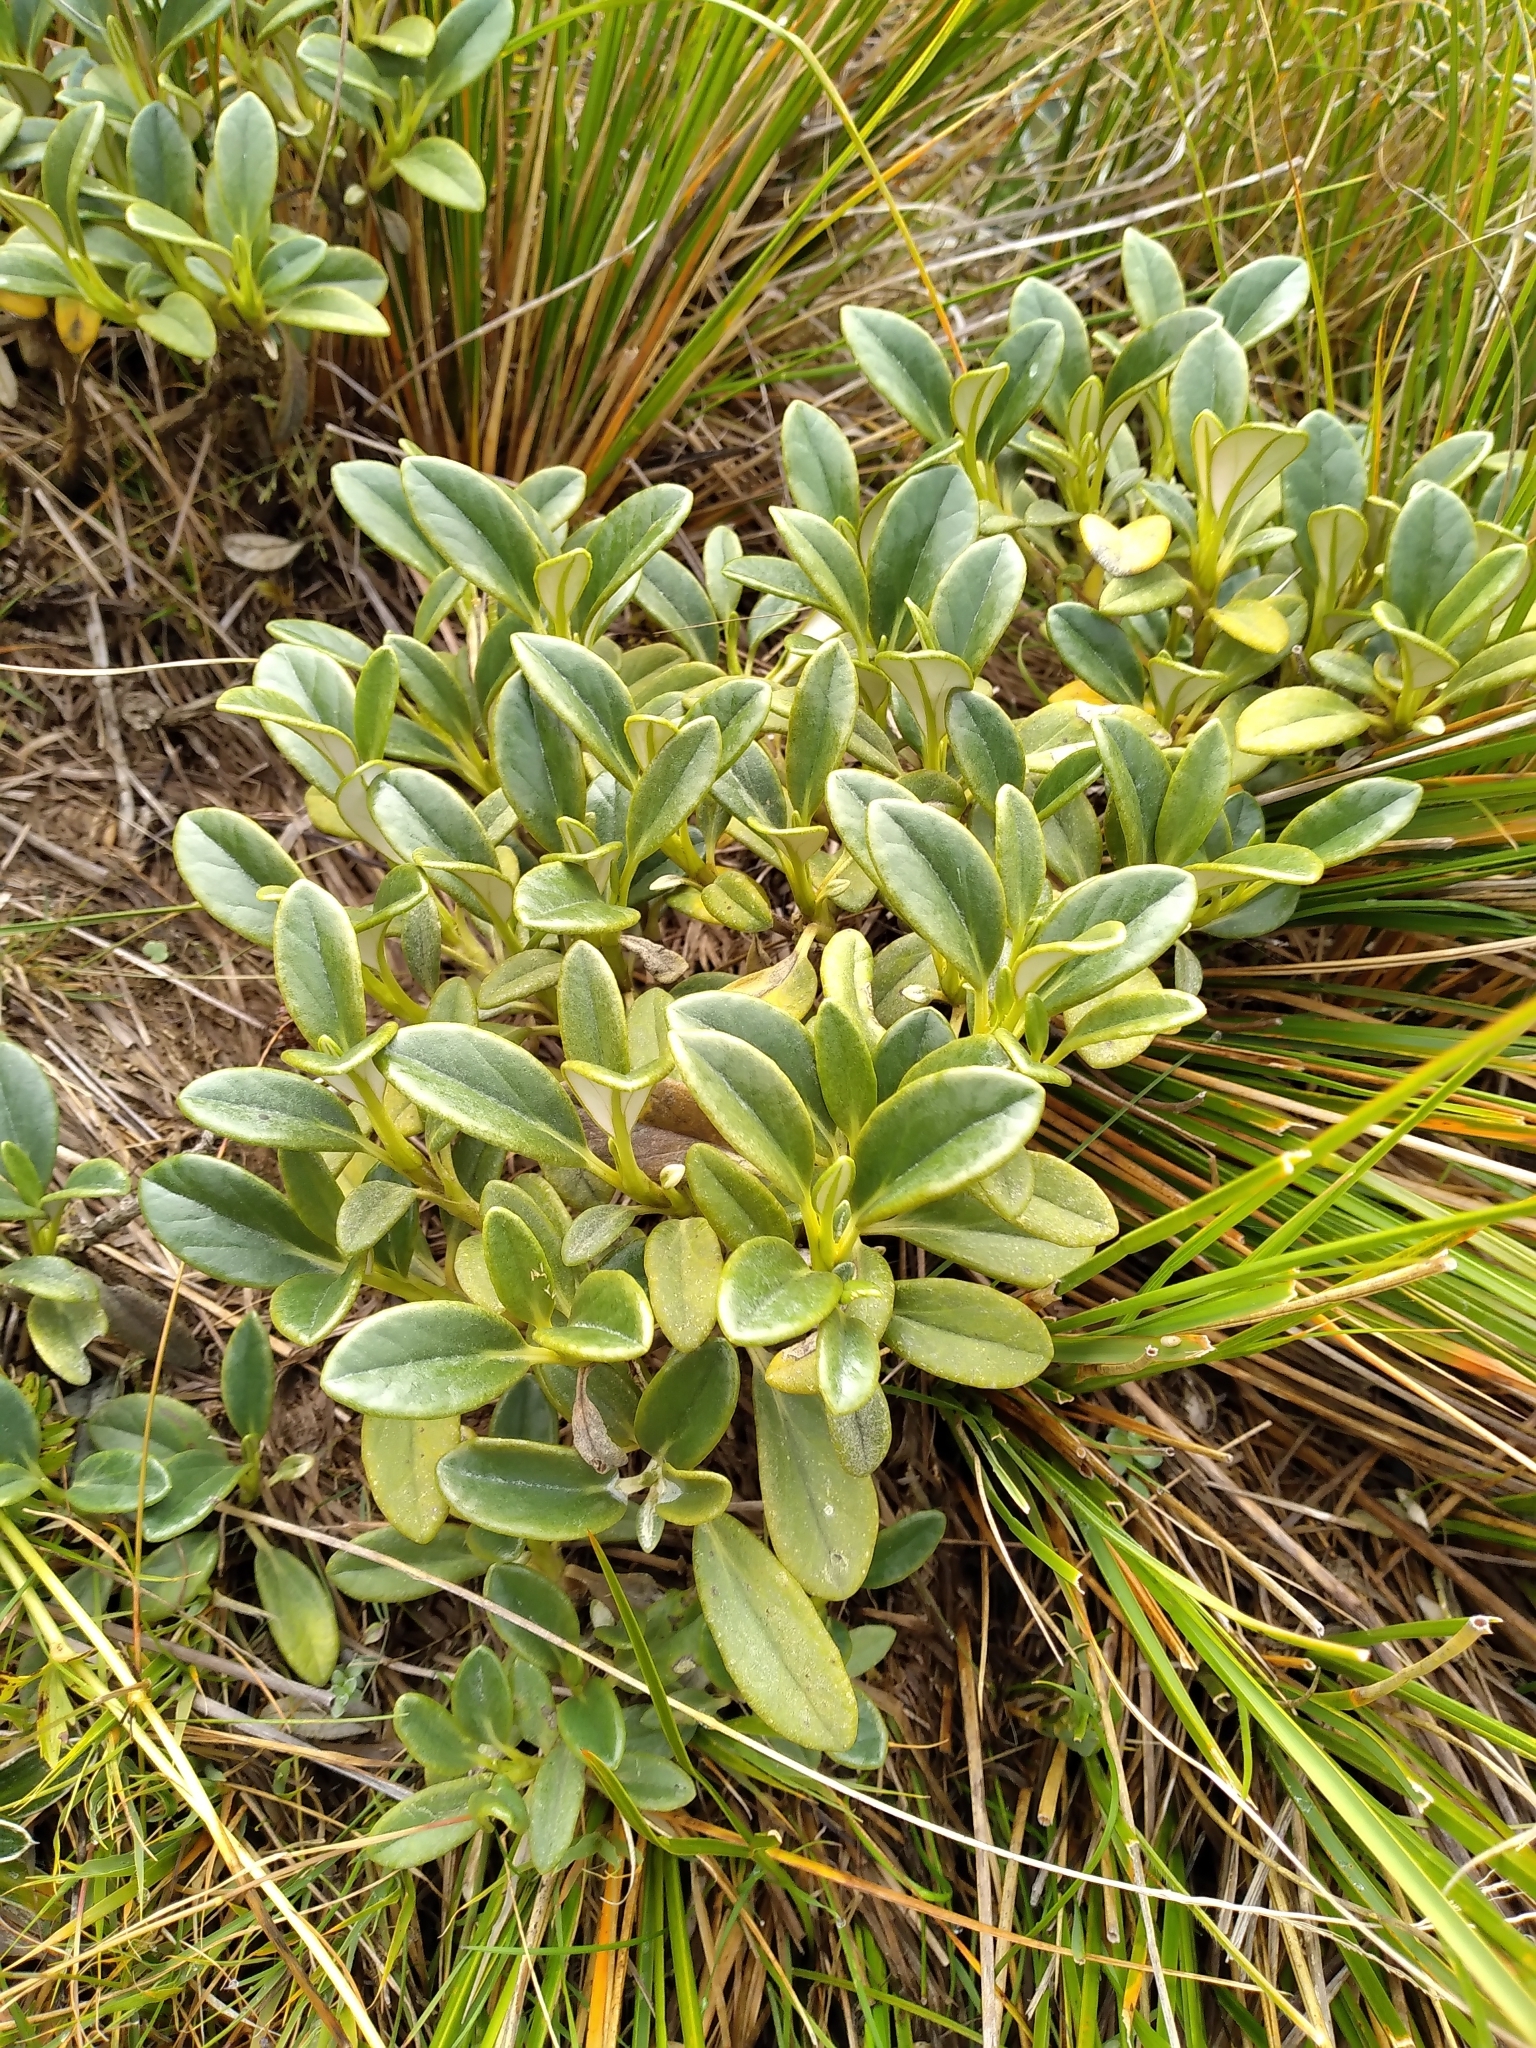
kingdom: Plantae
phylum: Tracheophyta
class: Magnoliopsida
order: Asterales
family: Asteraceae
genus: Brachyglottis
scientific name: Brachyglottis adamsii
